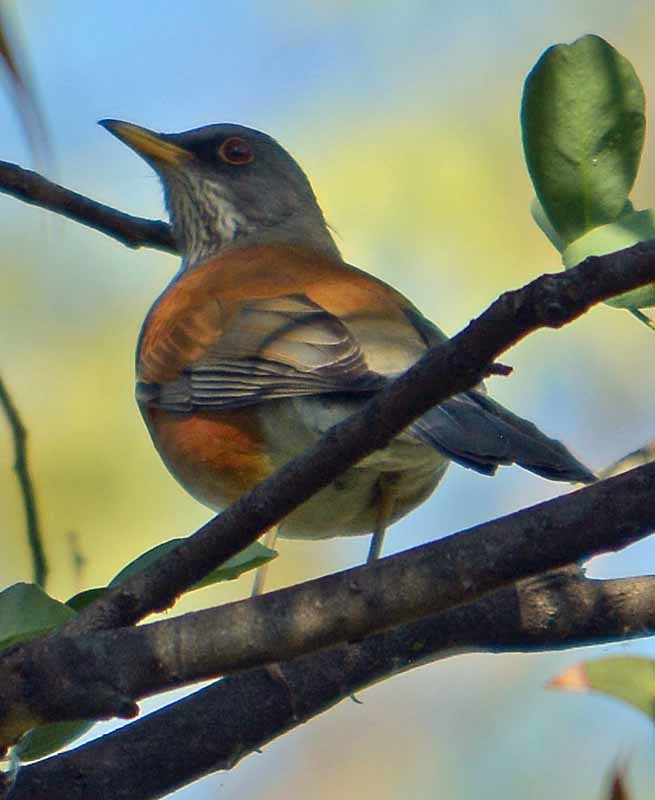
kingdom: Animalia
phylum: Chordata
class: Aves
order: Passeriformes
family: Turdidae
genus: Turdus
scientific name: Turdus rufopalliatus
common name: Rufous-backed robin
